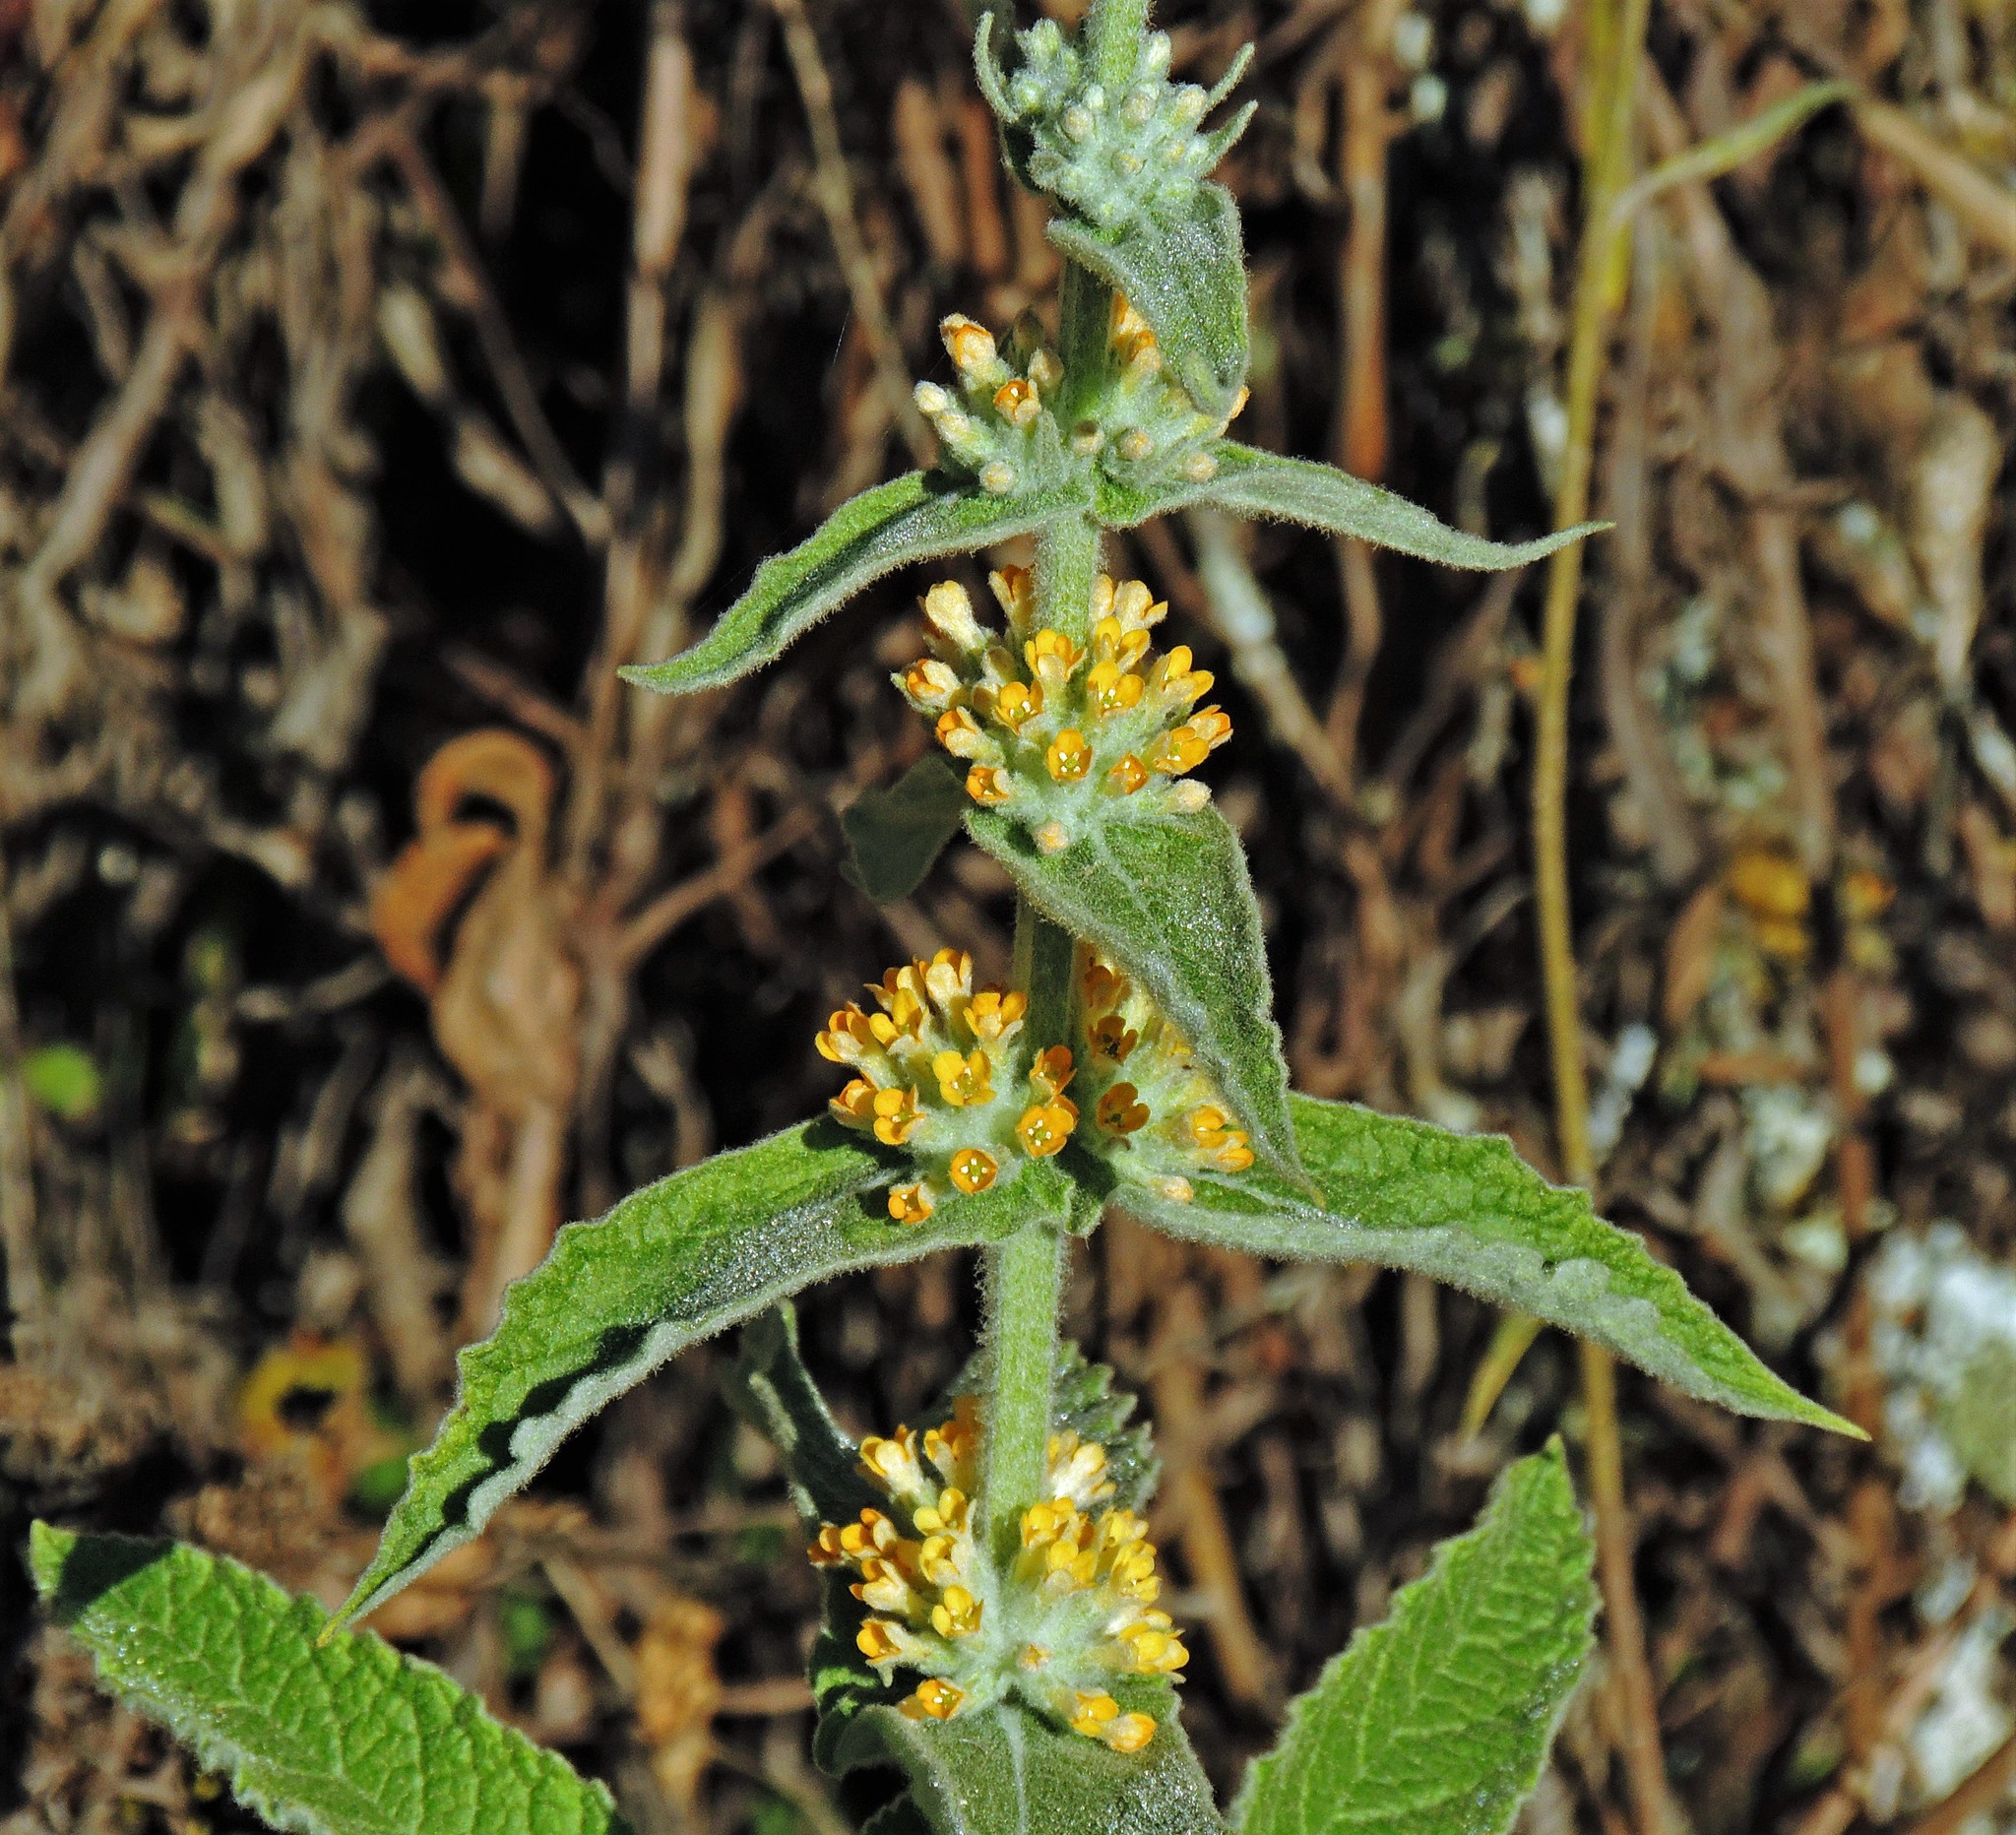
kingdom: Plantae
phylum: Tracheophyta
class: Magnoliopsida
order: Lamiales
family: Scrophulariaceae
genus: Buddleja
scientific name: Buddleja stachyoides
